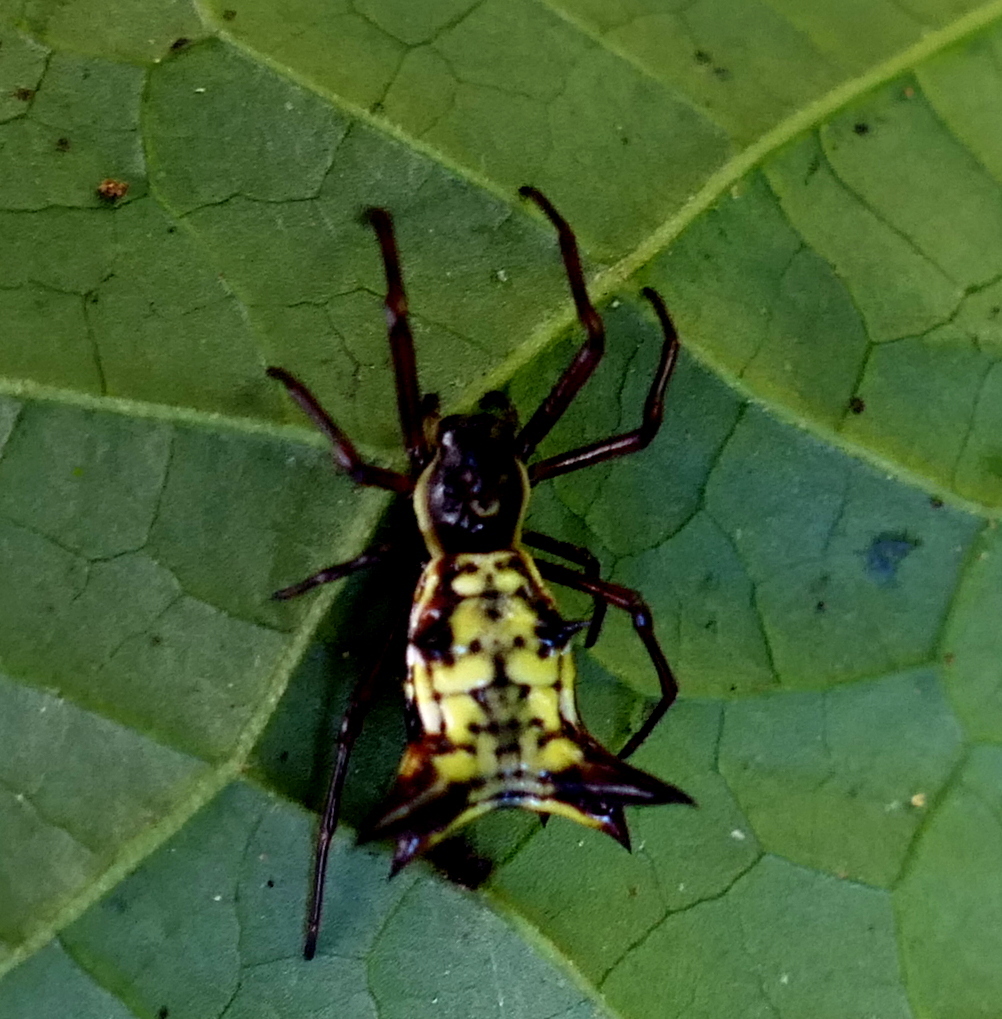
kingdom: Animalia
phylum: Arthropoda
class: Arachnida
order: Araneae
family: Araneidae
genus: Micrathena
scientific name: Micrathena fissispina
